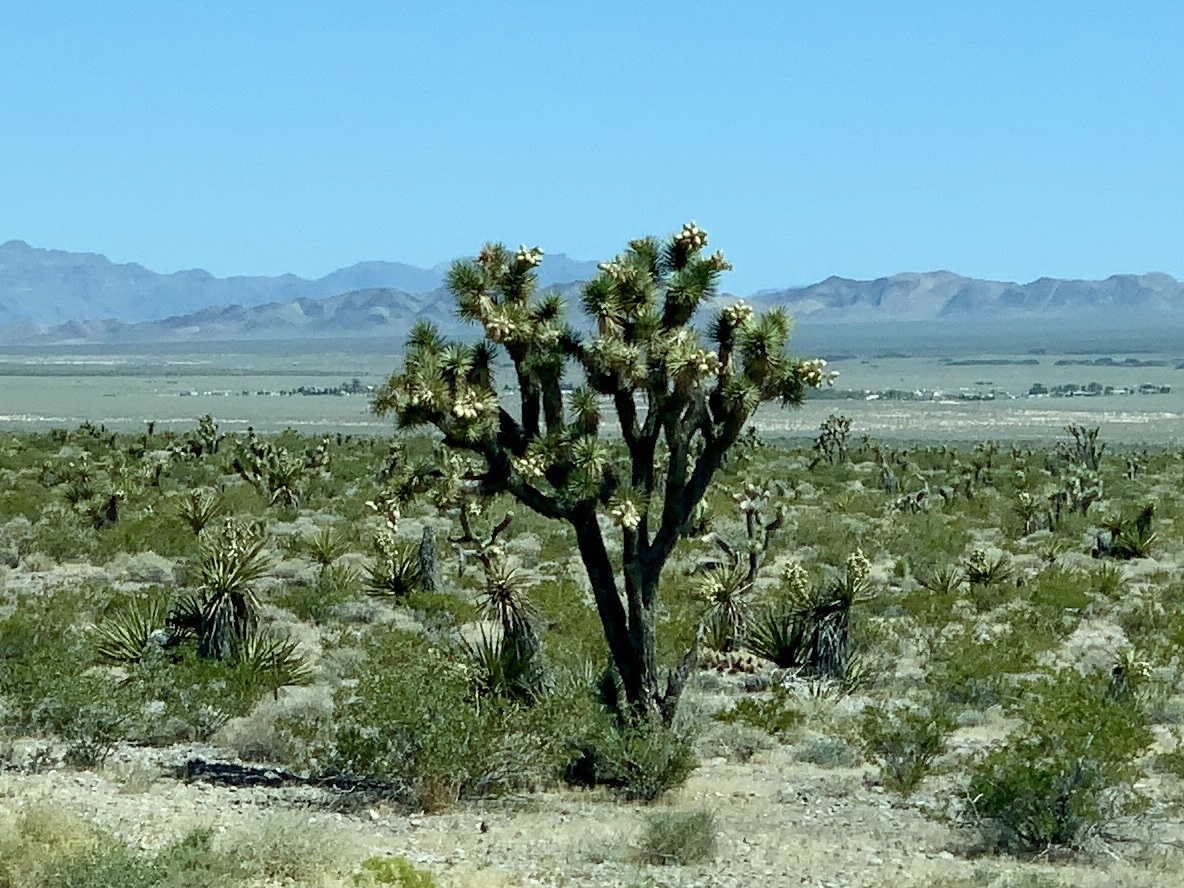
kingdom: Plantae
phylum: Tracheophyta
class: Liliopsida
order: Asparagales
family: Asparagaceae
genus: Yucca
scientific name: Yucca brevifolia
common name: Joshua tree
